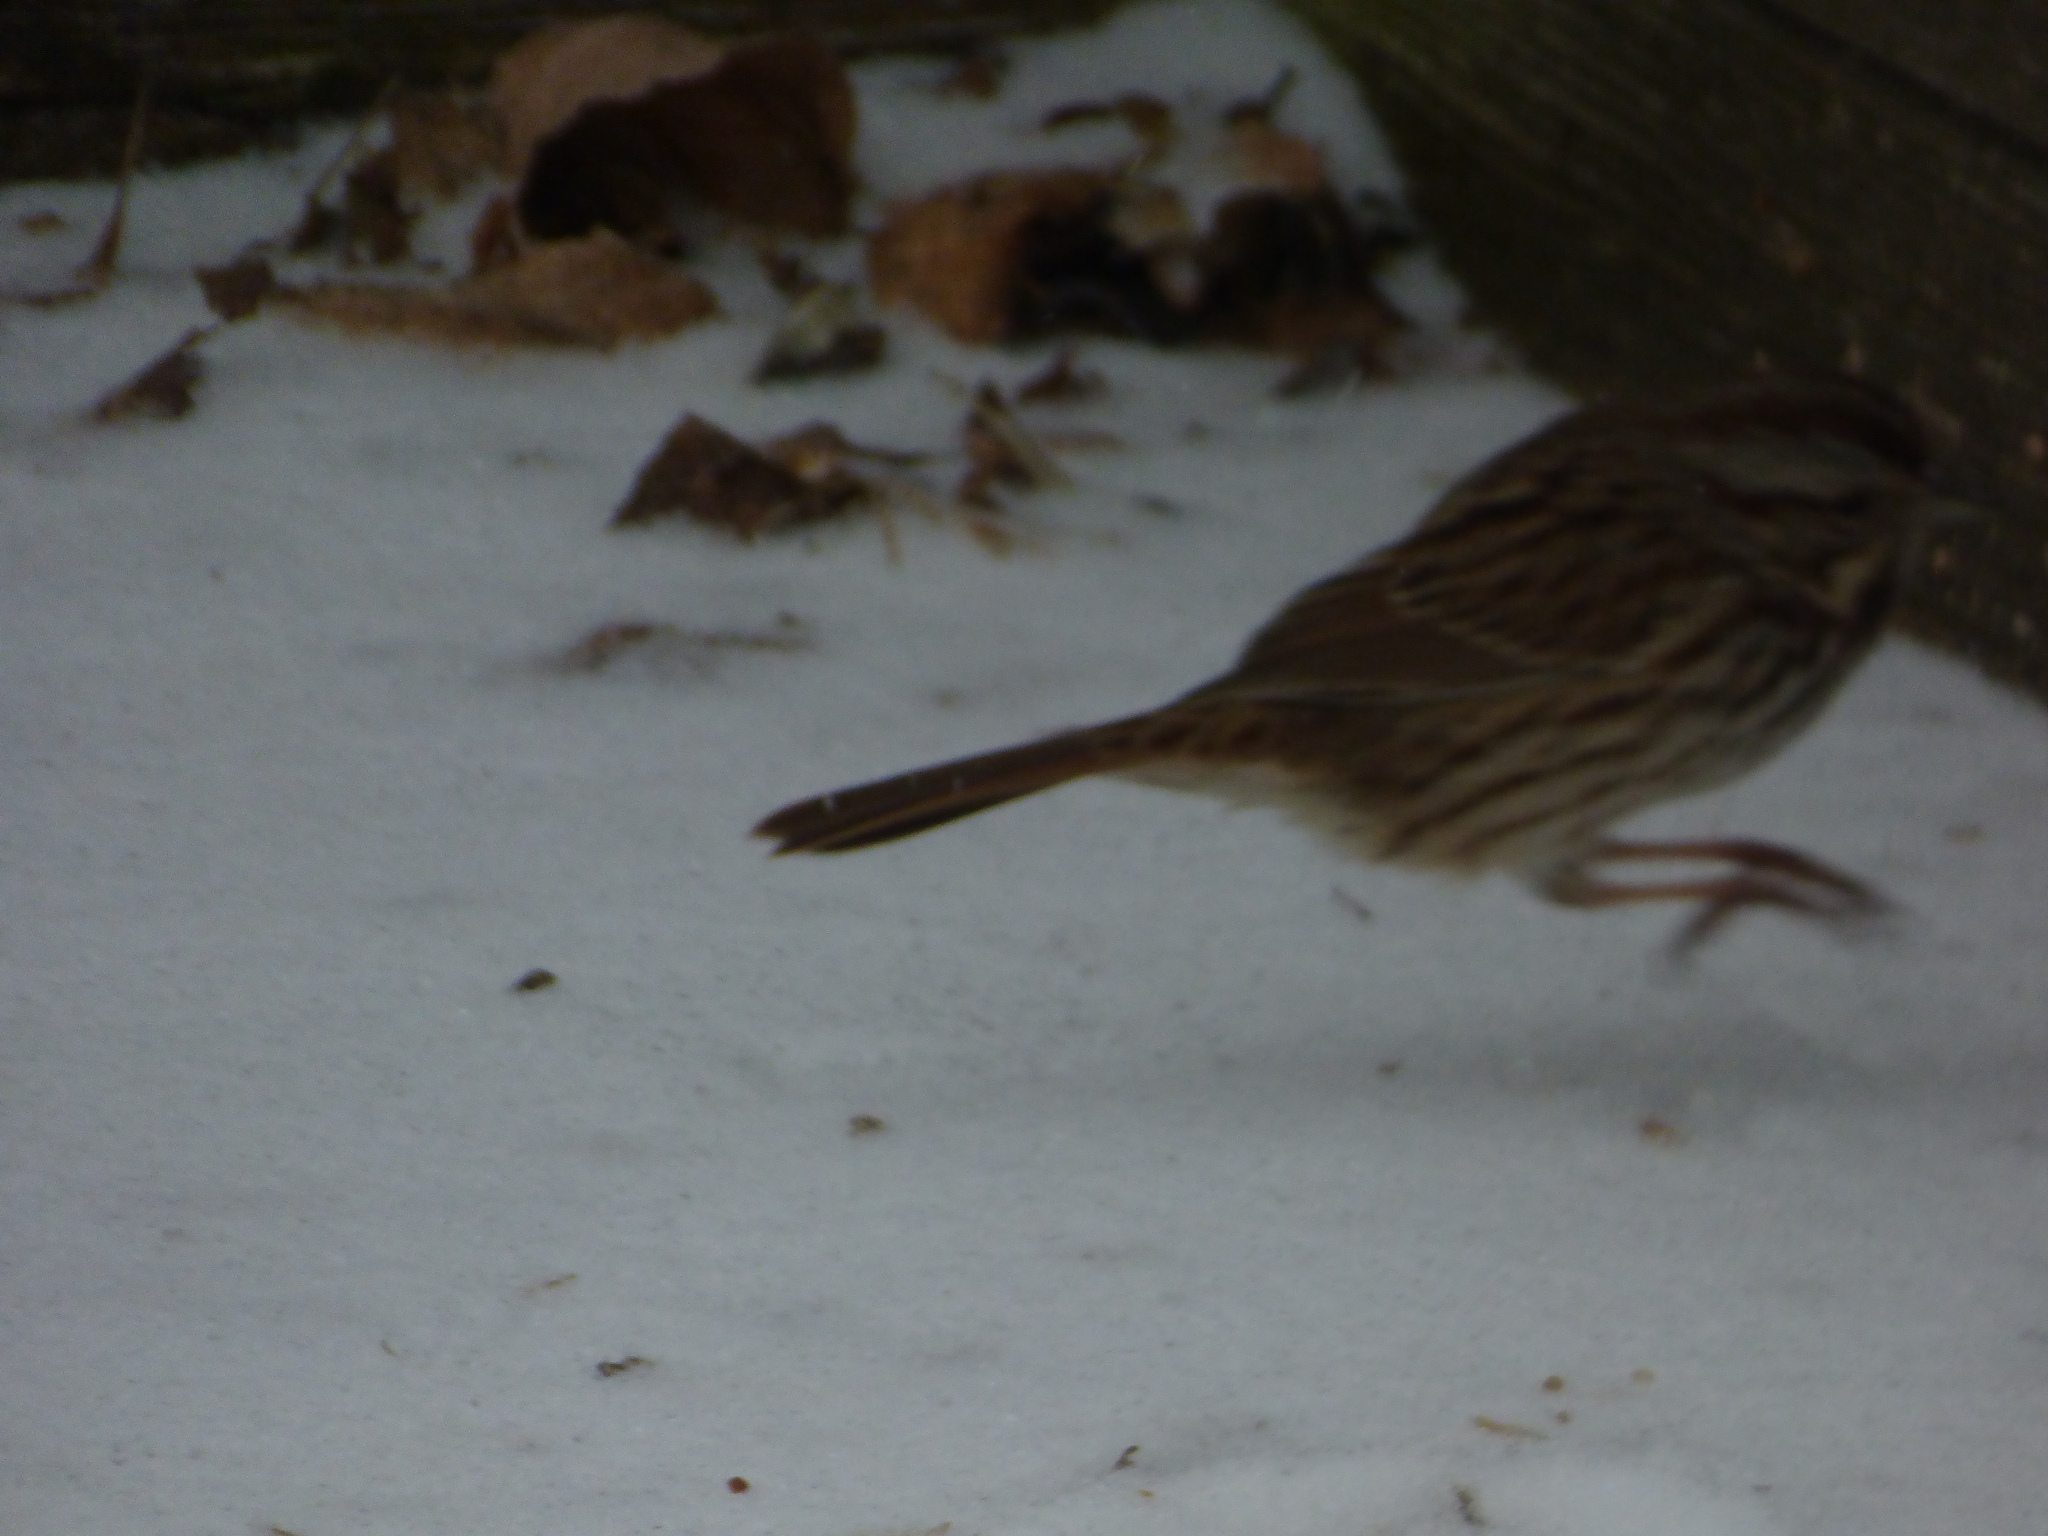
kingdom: Animalia
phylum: Chordata
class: Aves
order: Passeriformes
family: Passerellidae
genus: Melospiza
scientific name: Melospiza melodia
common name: Song sparrow
